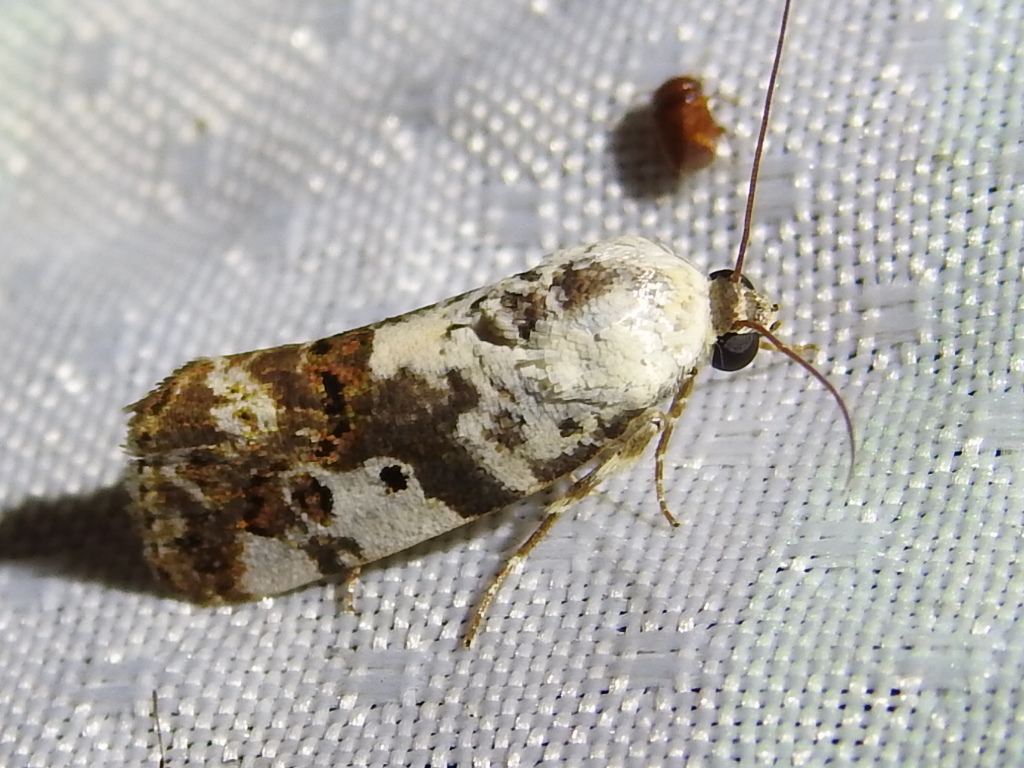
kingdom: Animalia
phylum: Arthropoda
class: Insecta
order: Lepidoptera
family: Noctuidae
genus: Acontia
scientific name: Acontia aprica
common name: Nun
